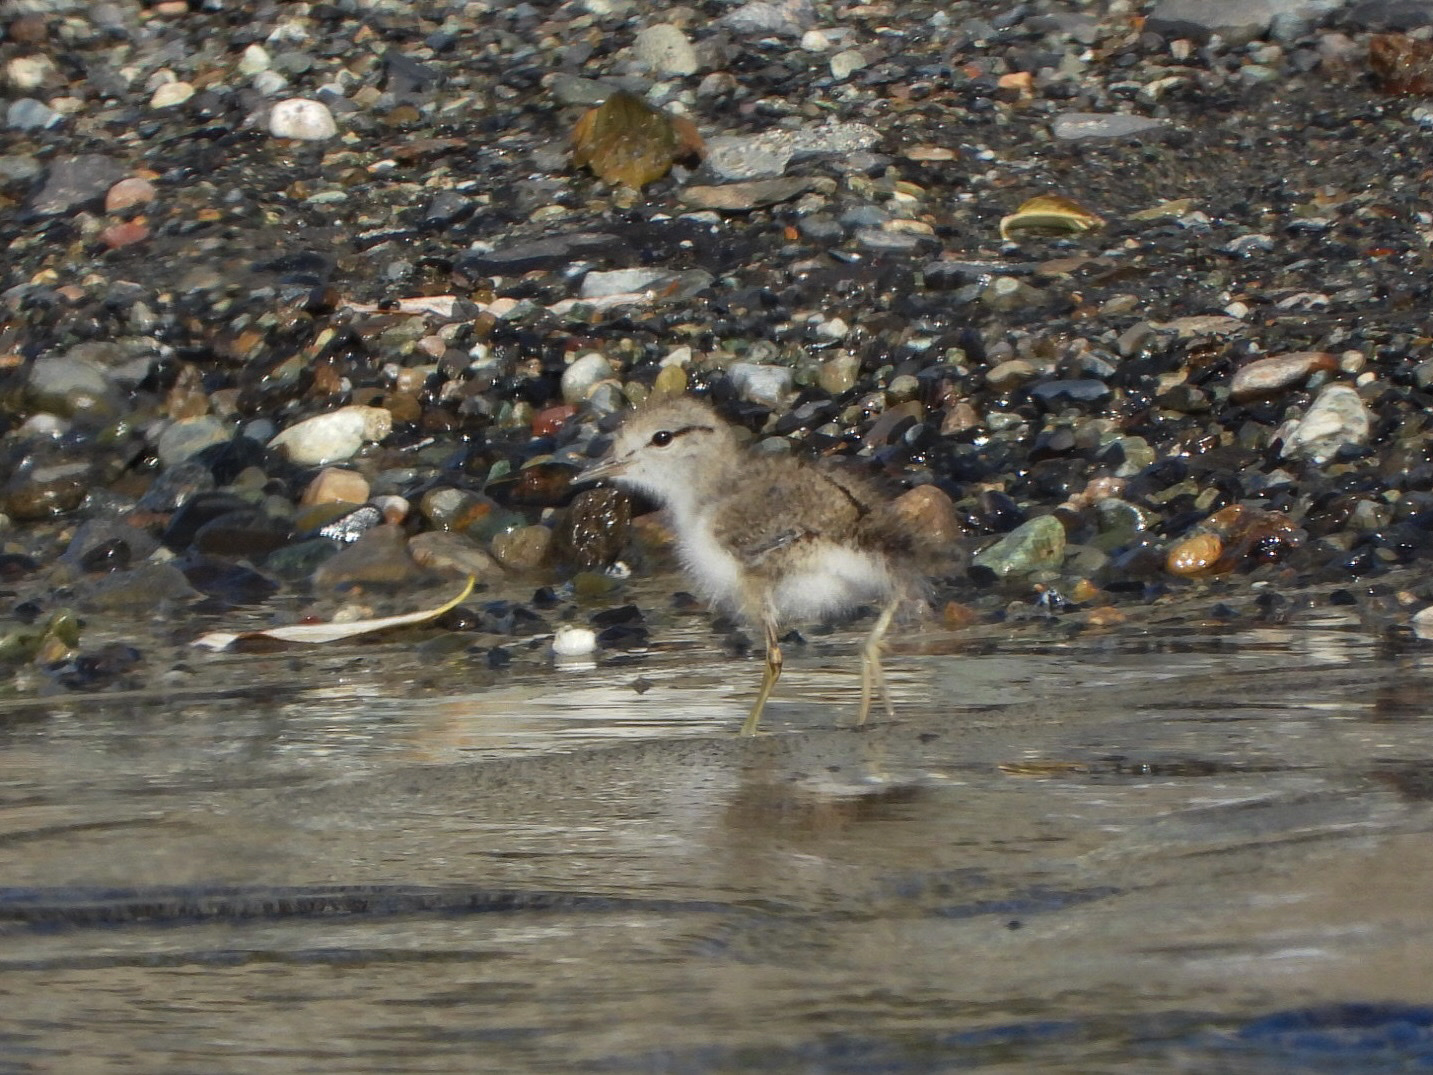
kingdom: Animalia
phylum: Chordata
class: Aves
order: Charadriiformes
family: Scolopacidae
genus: Actitis
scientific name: Actitis macularius
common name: Spotted sandpiper
